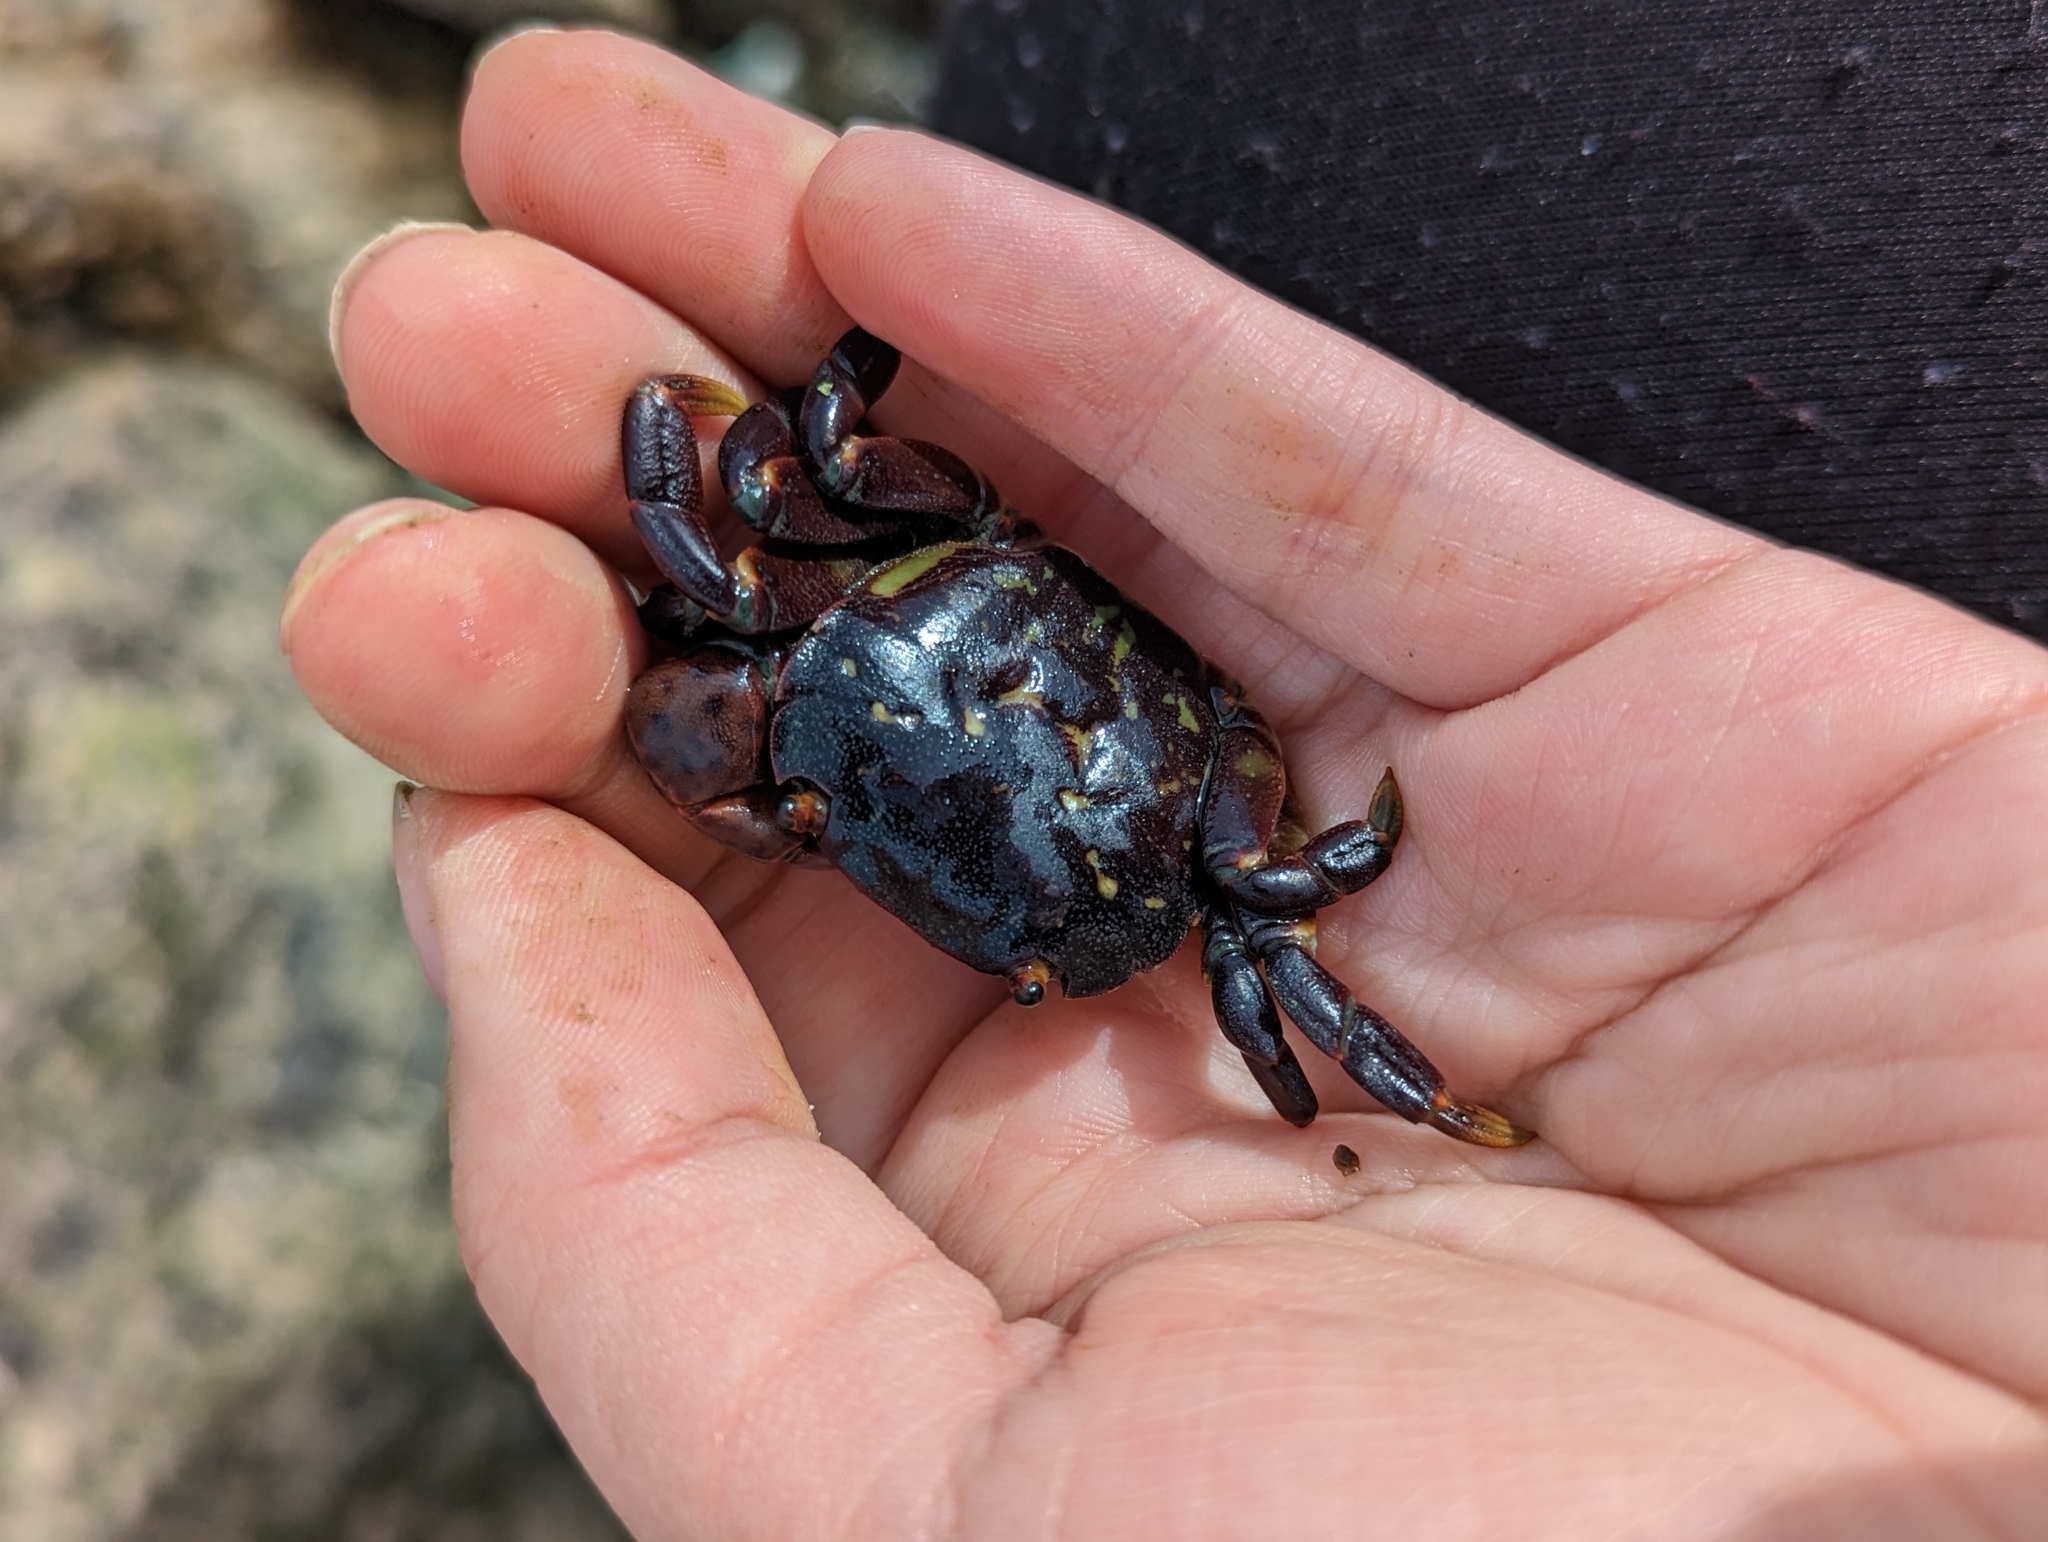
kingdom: Animalia
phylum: Arthropoda
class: Malacostraca
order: Decapoda
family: Varunidae
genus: Hemigrapsus
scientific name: Hemigrapsus nudus
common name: Purple shore crab
